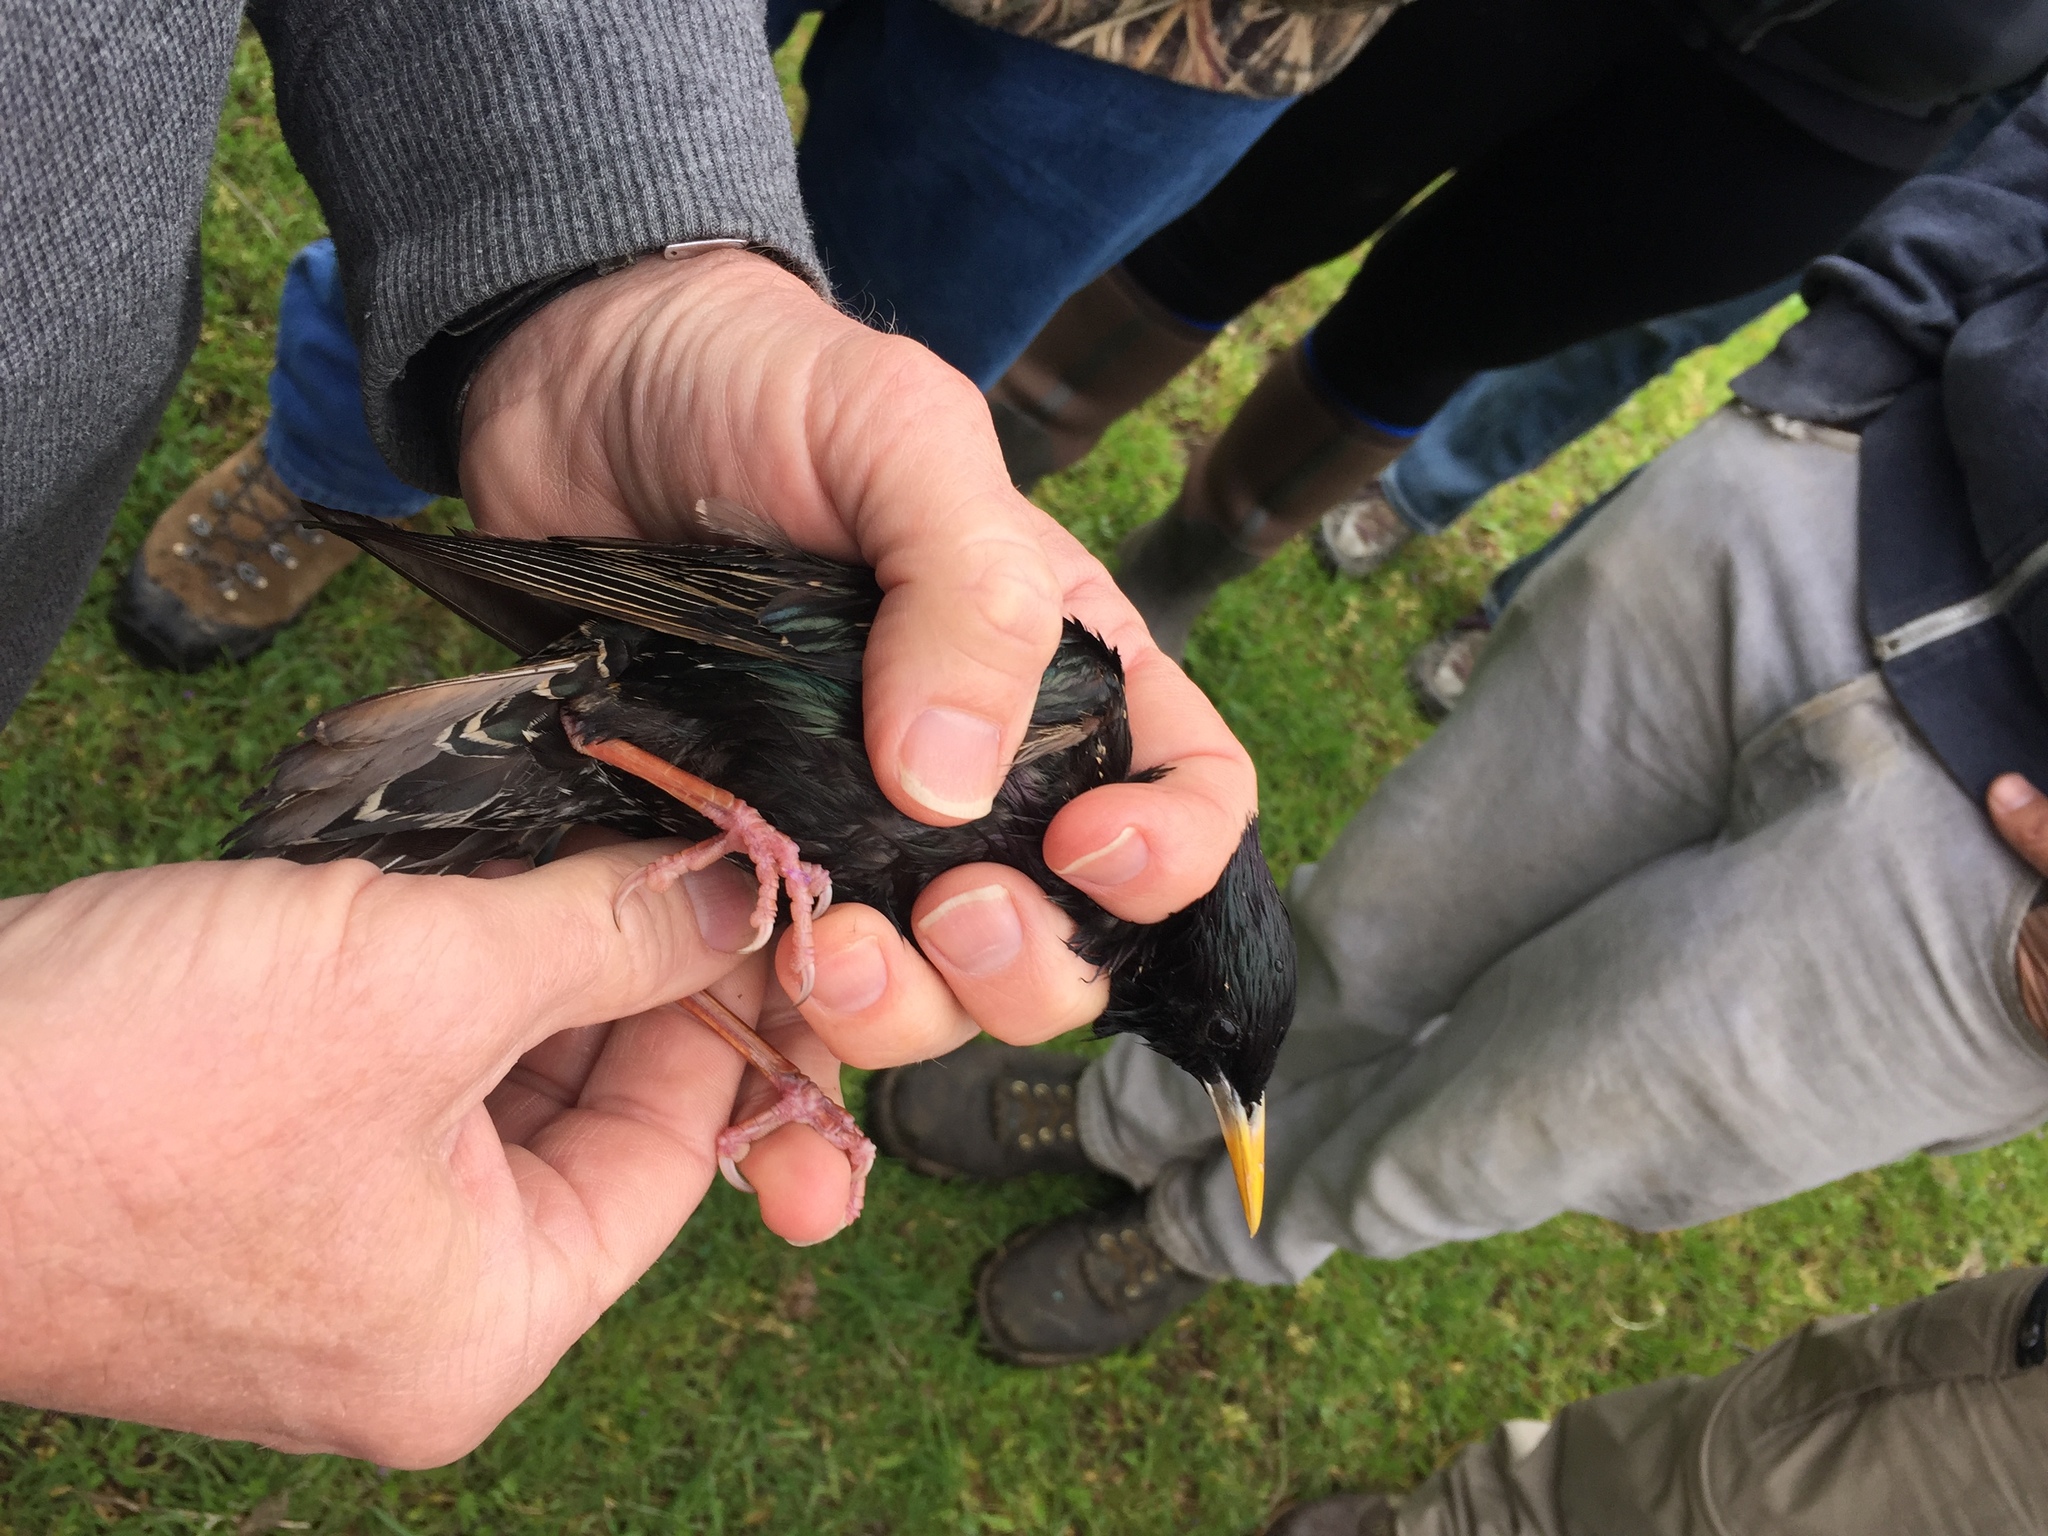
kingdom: Animalia
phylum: Chordata
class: Aves
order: Passeriformes
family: Sturnidae
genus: Sturnus
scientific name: Sturnus vulgaris
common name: Common starling
